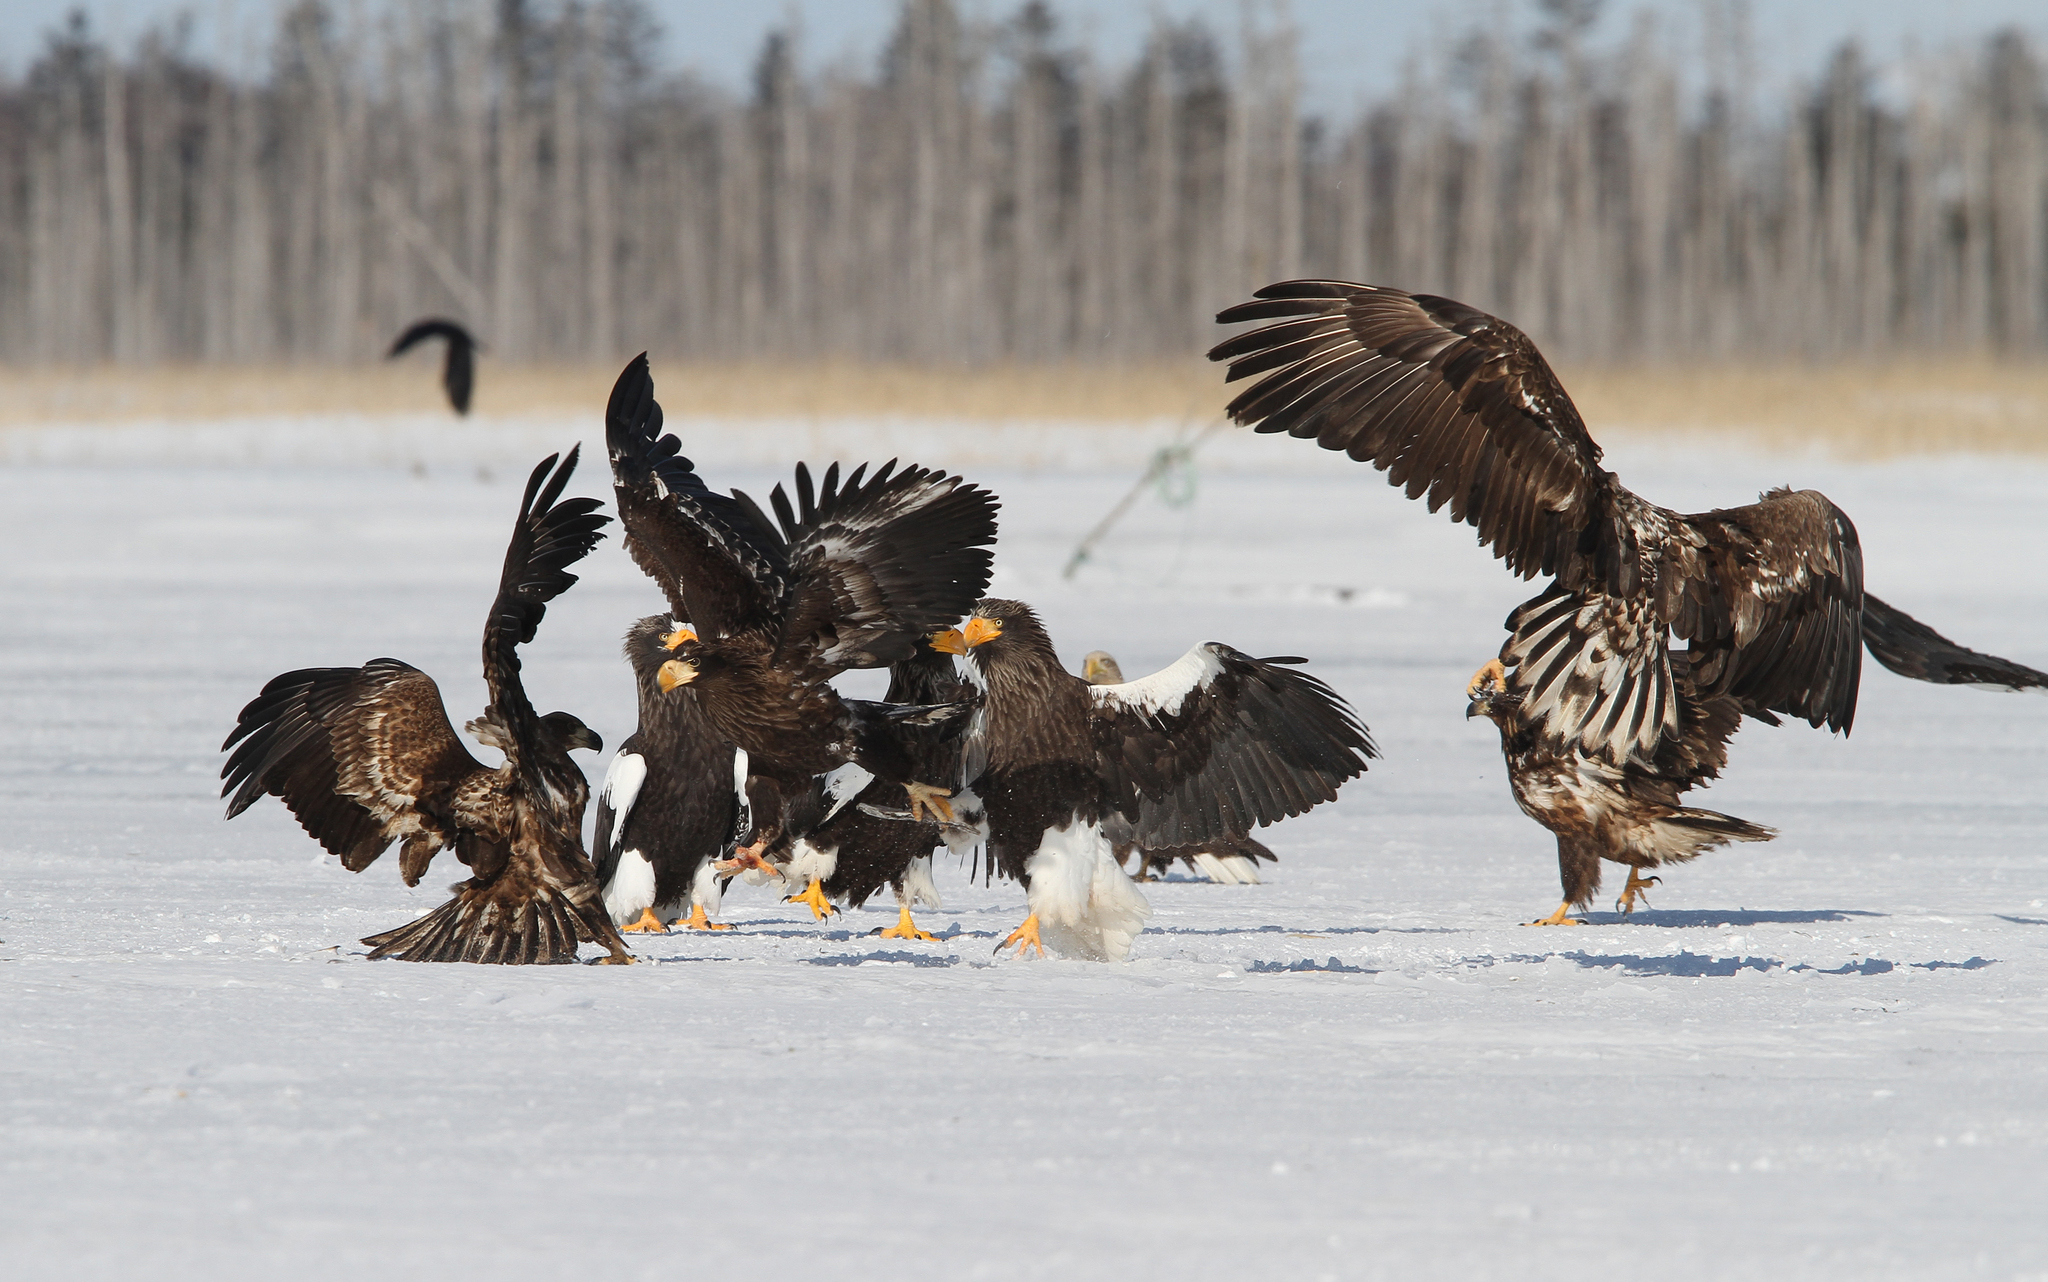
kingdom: Animalia
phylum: Chordata
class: Aves
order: Accipitriformes
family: Accipitridae
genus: Haliaeetus
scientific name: Haliaeetus pelagicus
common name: Steller's sea eagle
